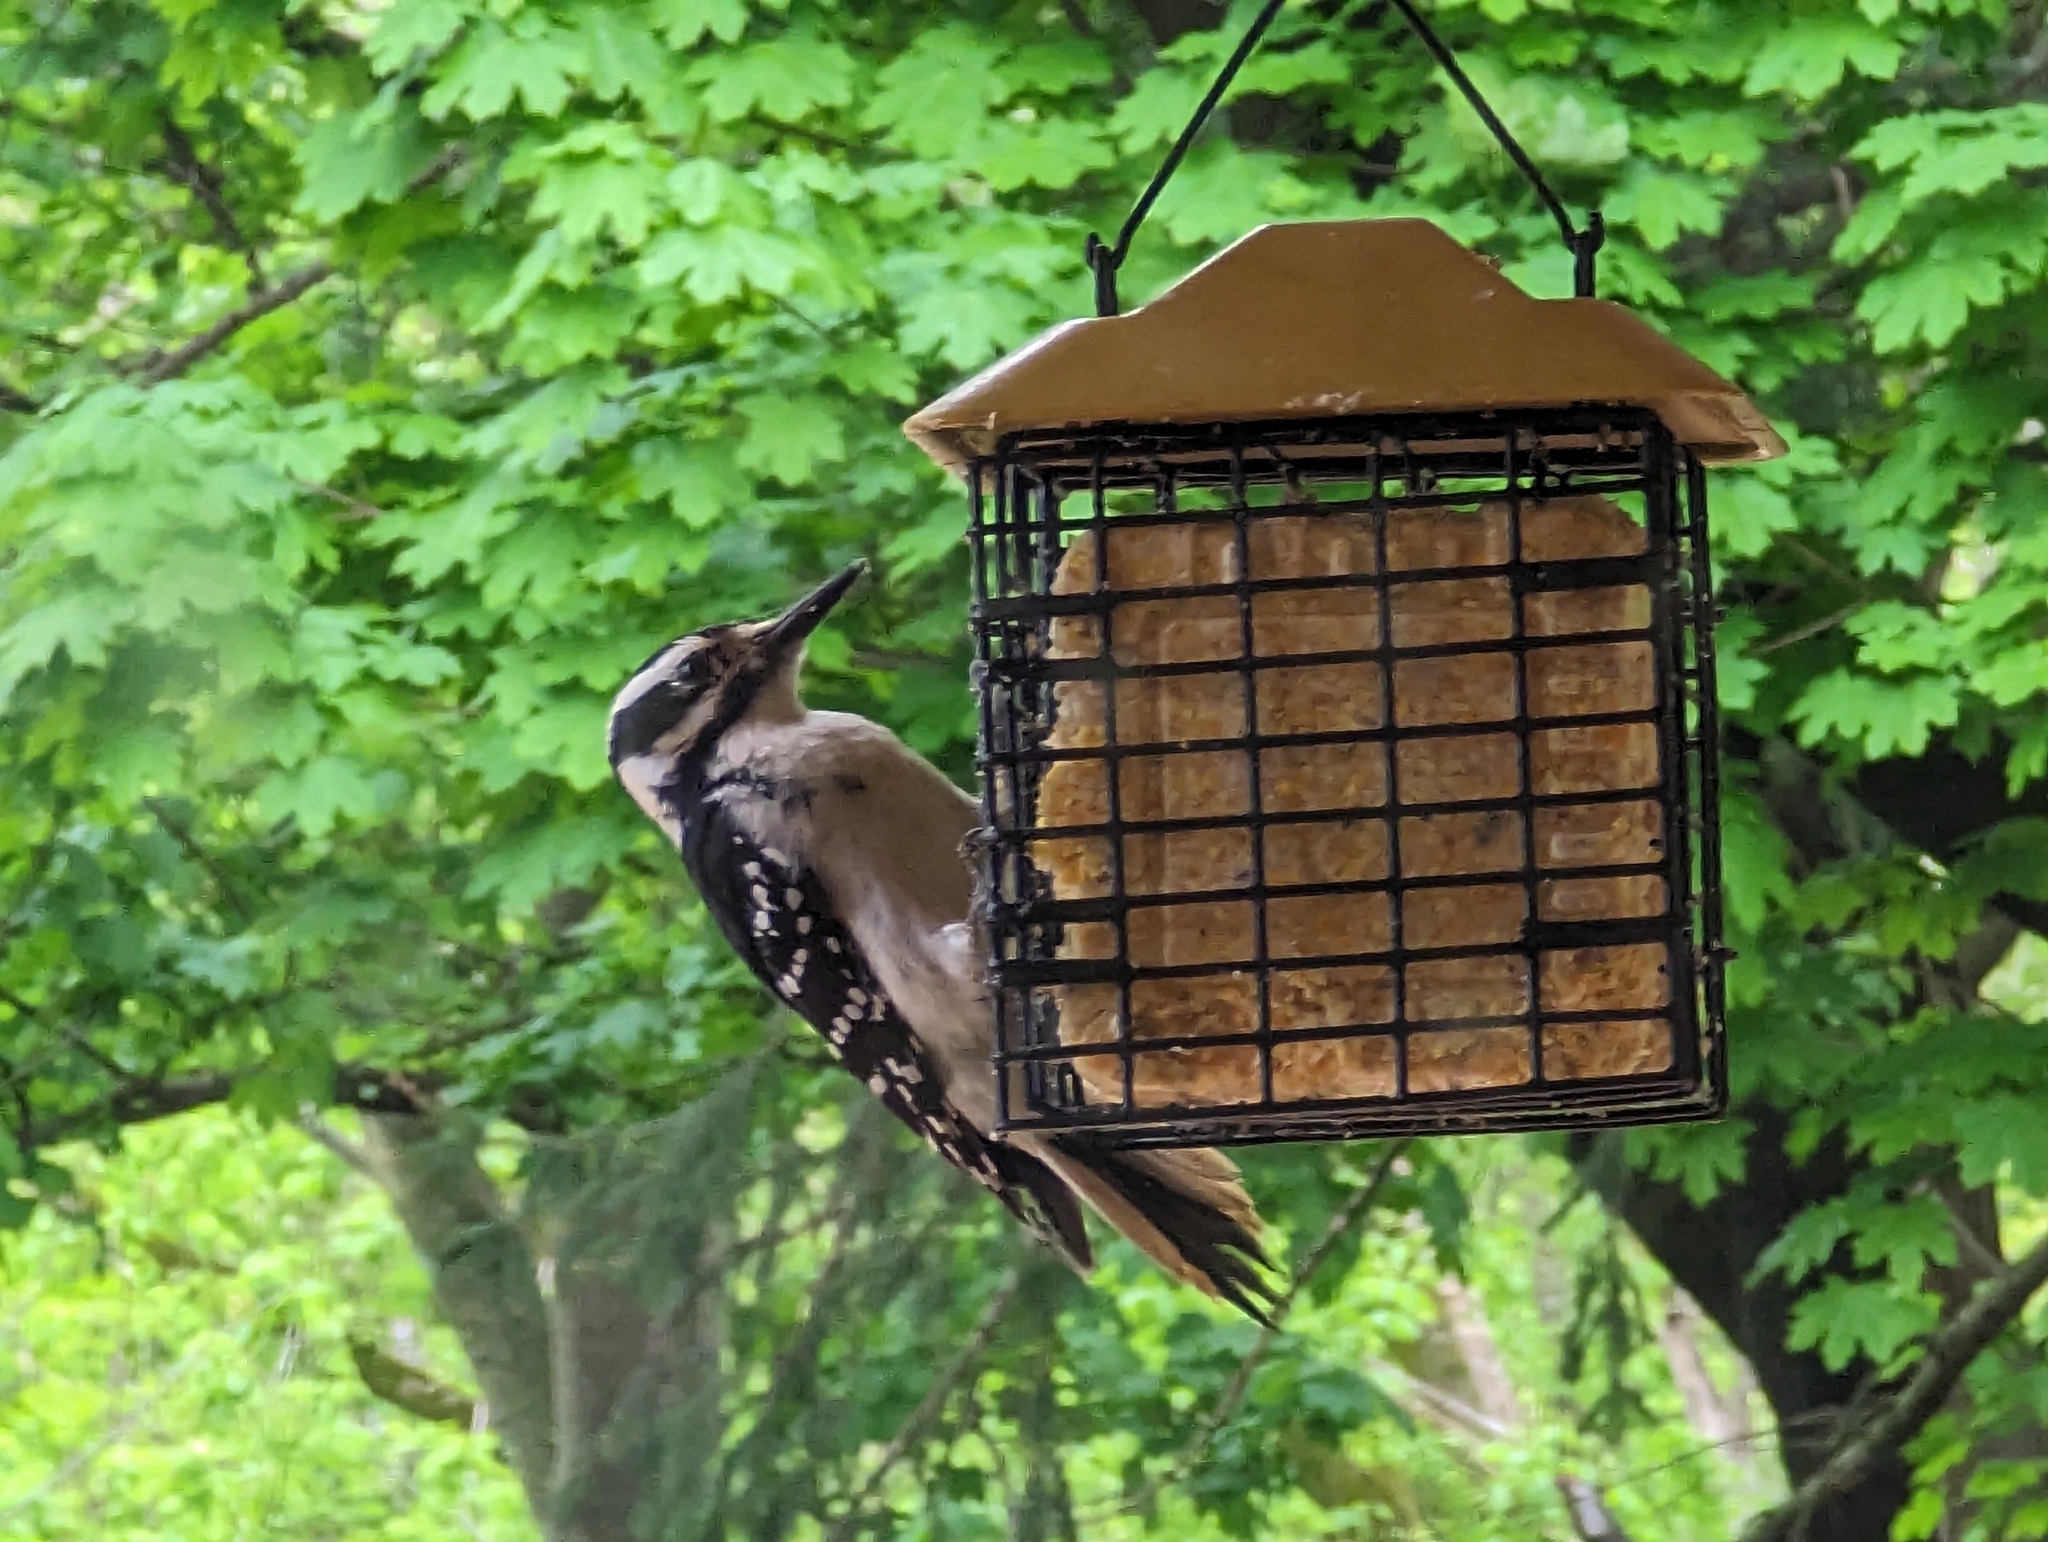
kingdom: Animalia
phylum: Chordata
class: Aves
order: Piciformes
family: Picidae
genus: Leuconotopicus
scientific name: Leuconotopicus villosus
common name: Hairy woodpecker
